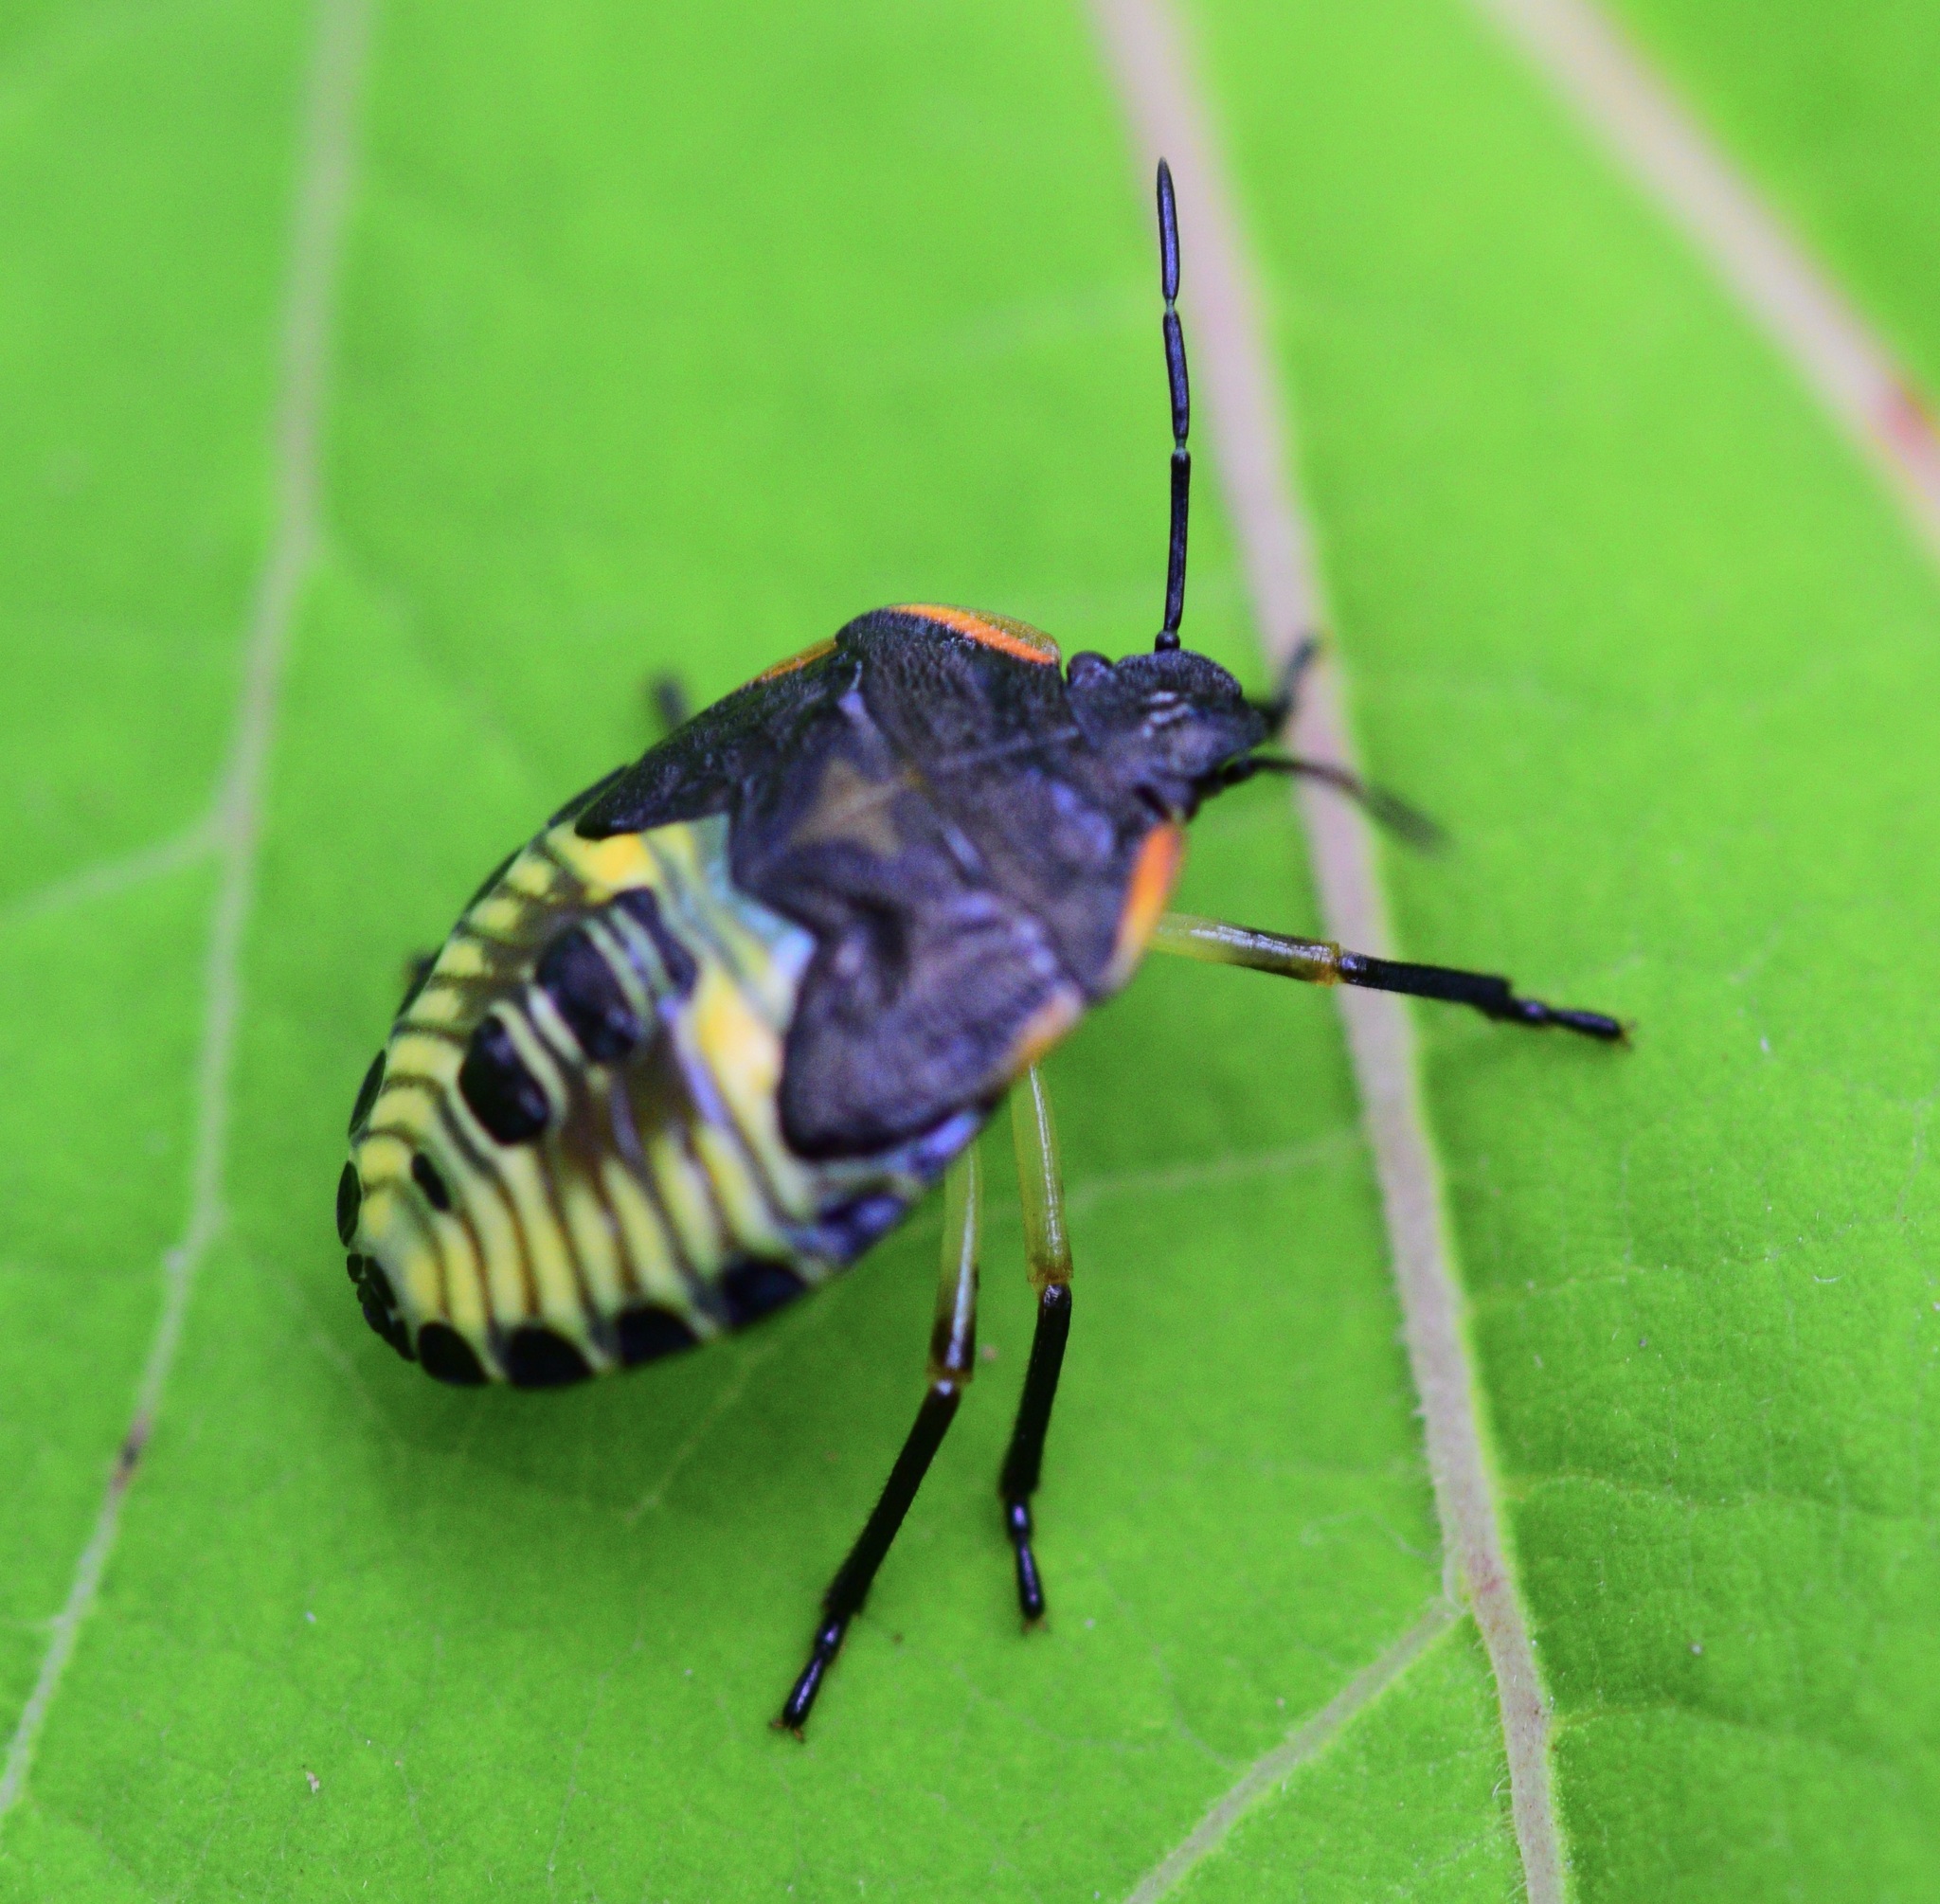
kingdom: Animalia
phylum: Arthropoda
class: Insecta
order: Hemiptera
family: Pentatomidae
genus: Chinavia
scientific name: Chinavia hilaris
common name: Green stink bug
